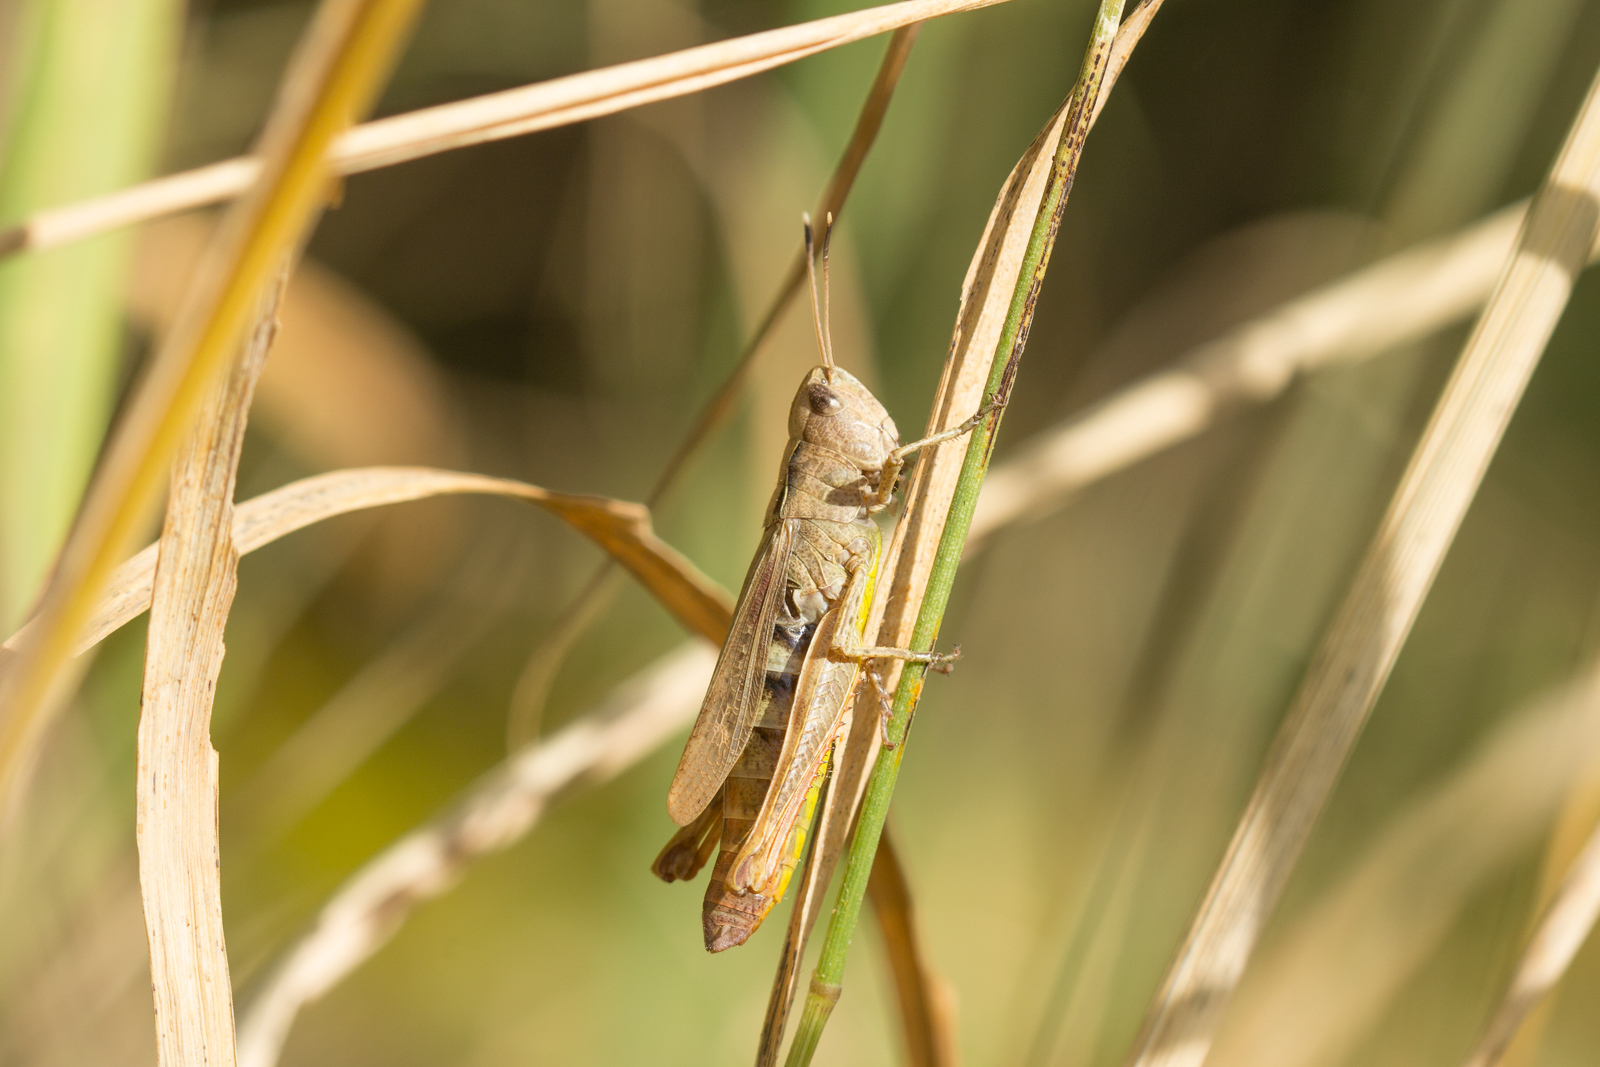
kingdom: Animalia
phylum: Arthropoda
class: Insecta
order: Orthoptera
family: Acrididae
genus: Gomphocerippus
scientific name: Gomphocerippus rufus
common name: Rufous grasshopper
